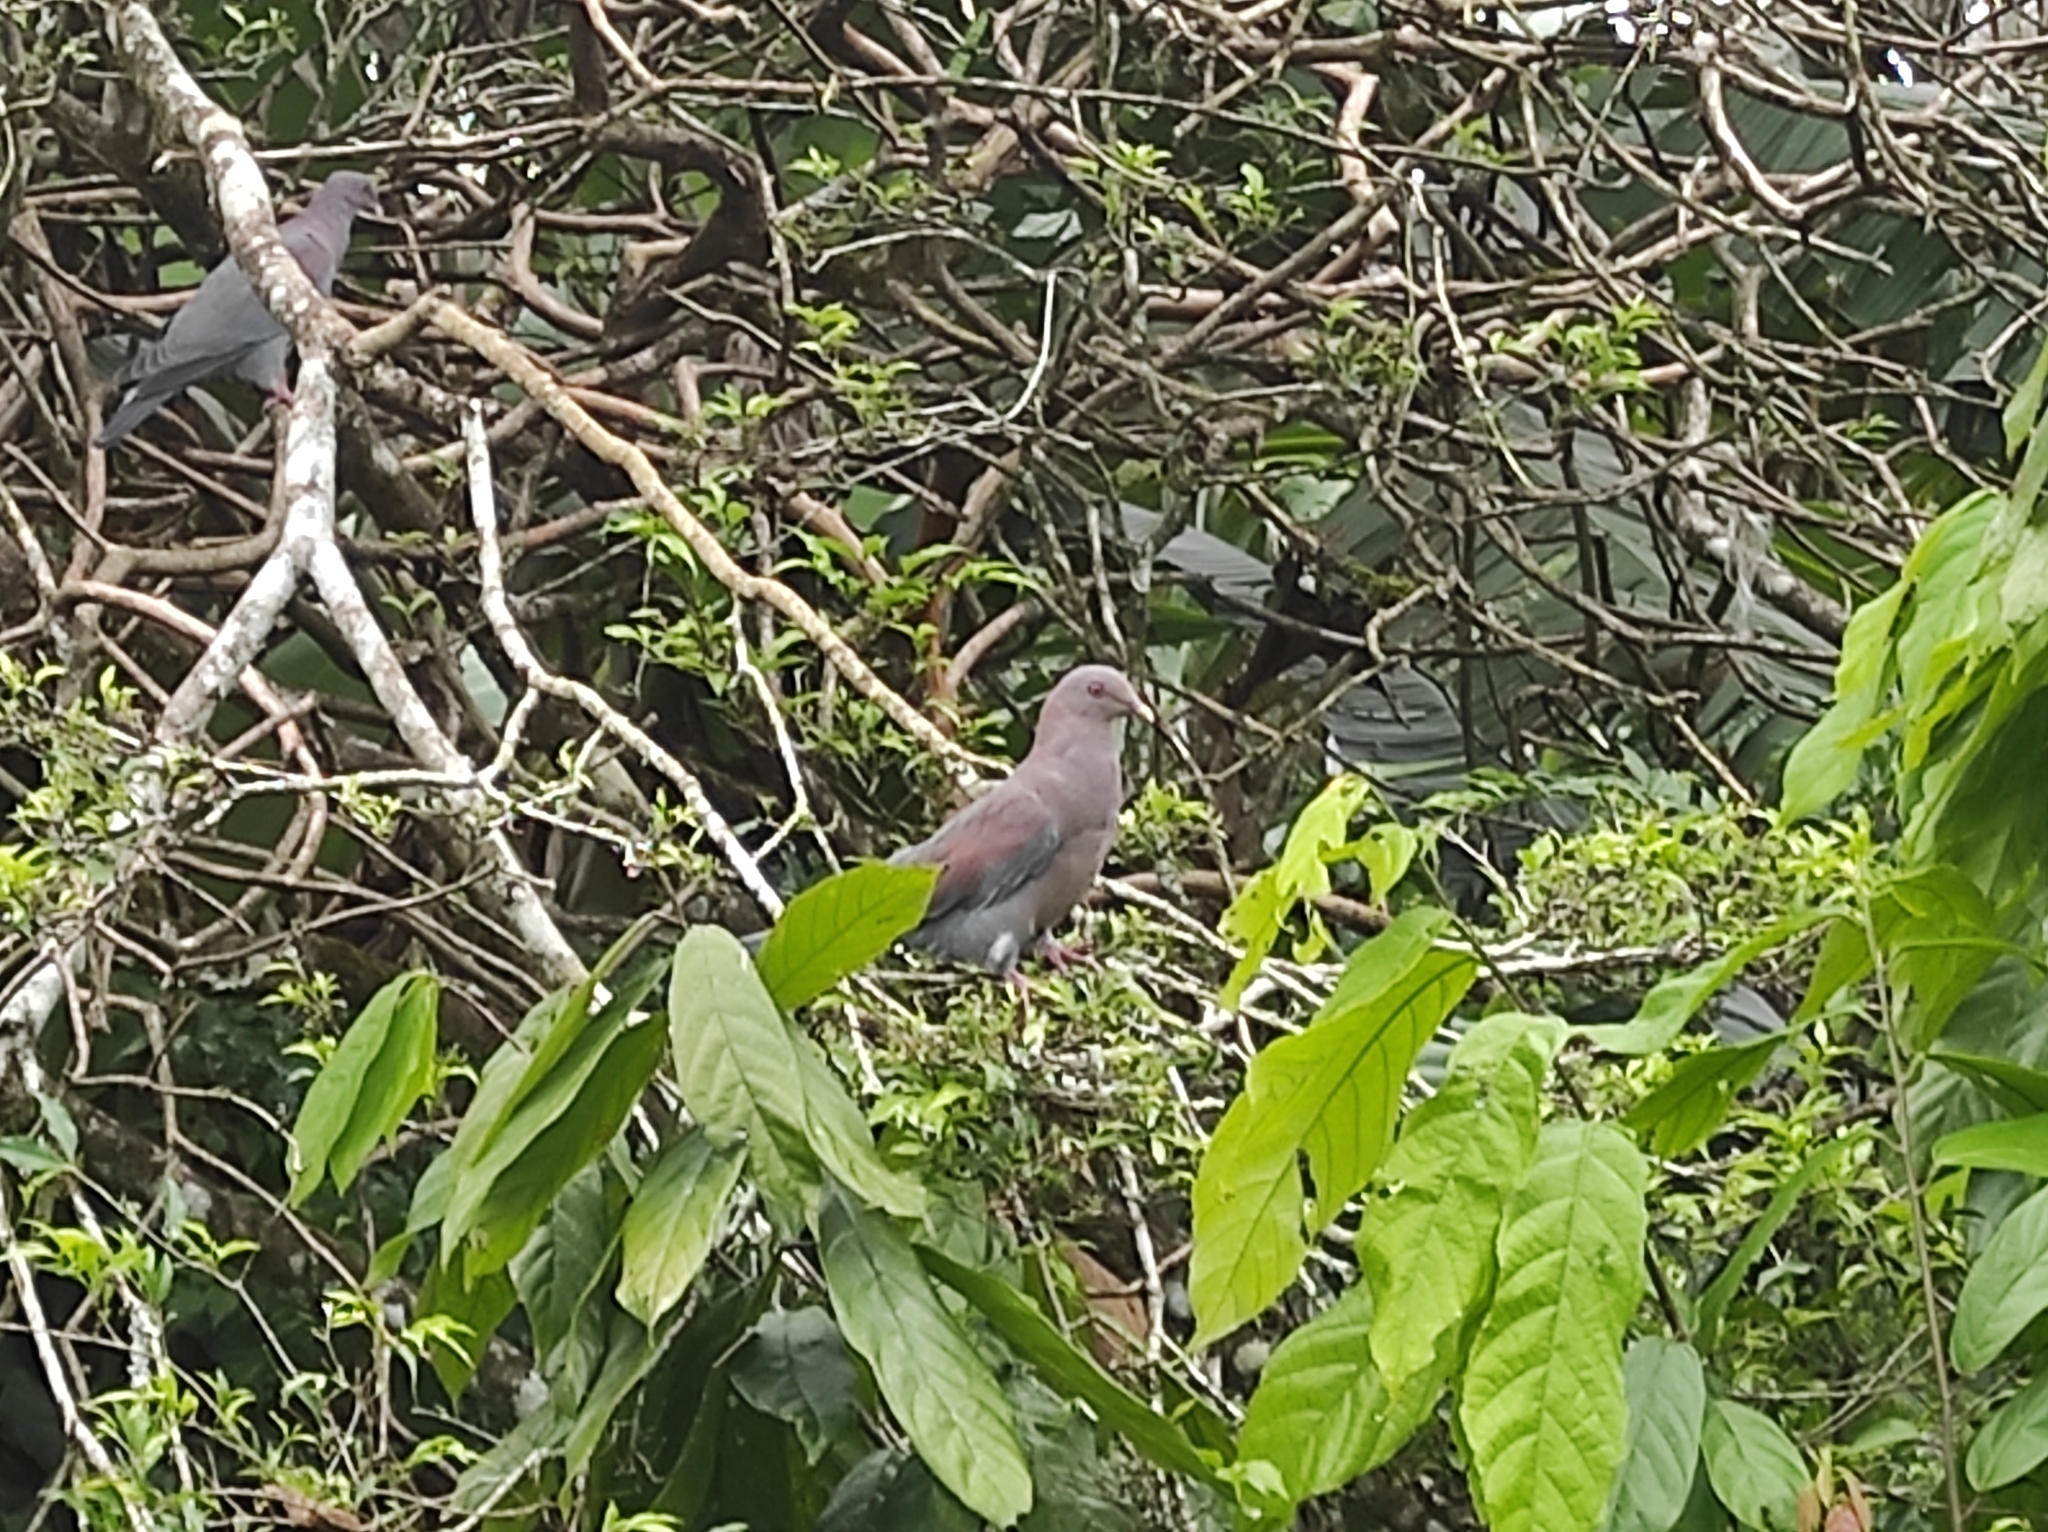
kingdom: Animalia
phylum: Chordata
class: Aves
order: Columbiformes
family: Columbidae
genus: Patagioenas
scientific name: Patagioenas flavirostris
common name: Red-billed pigeon
